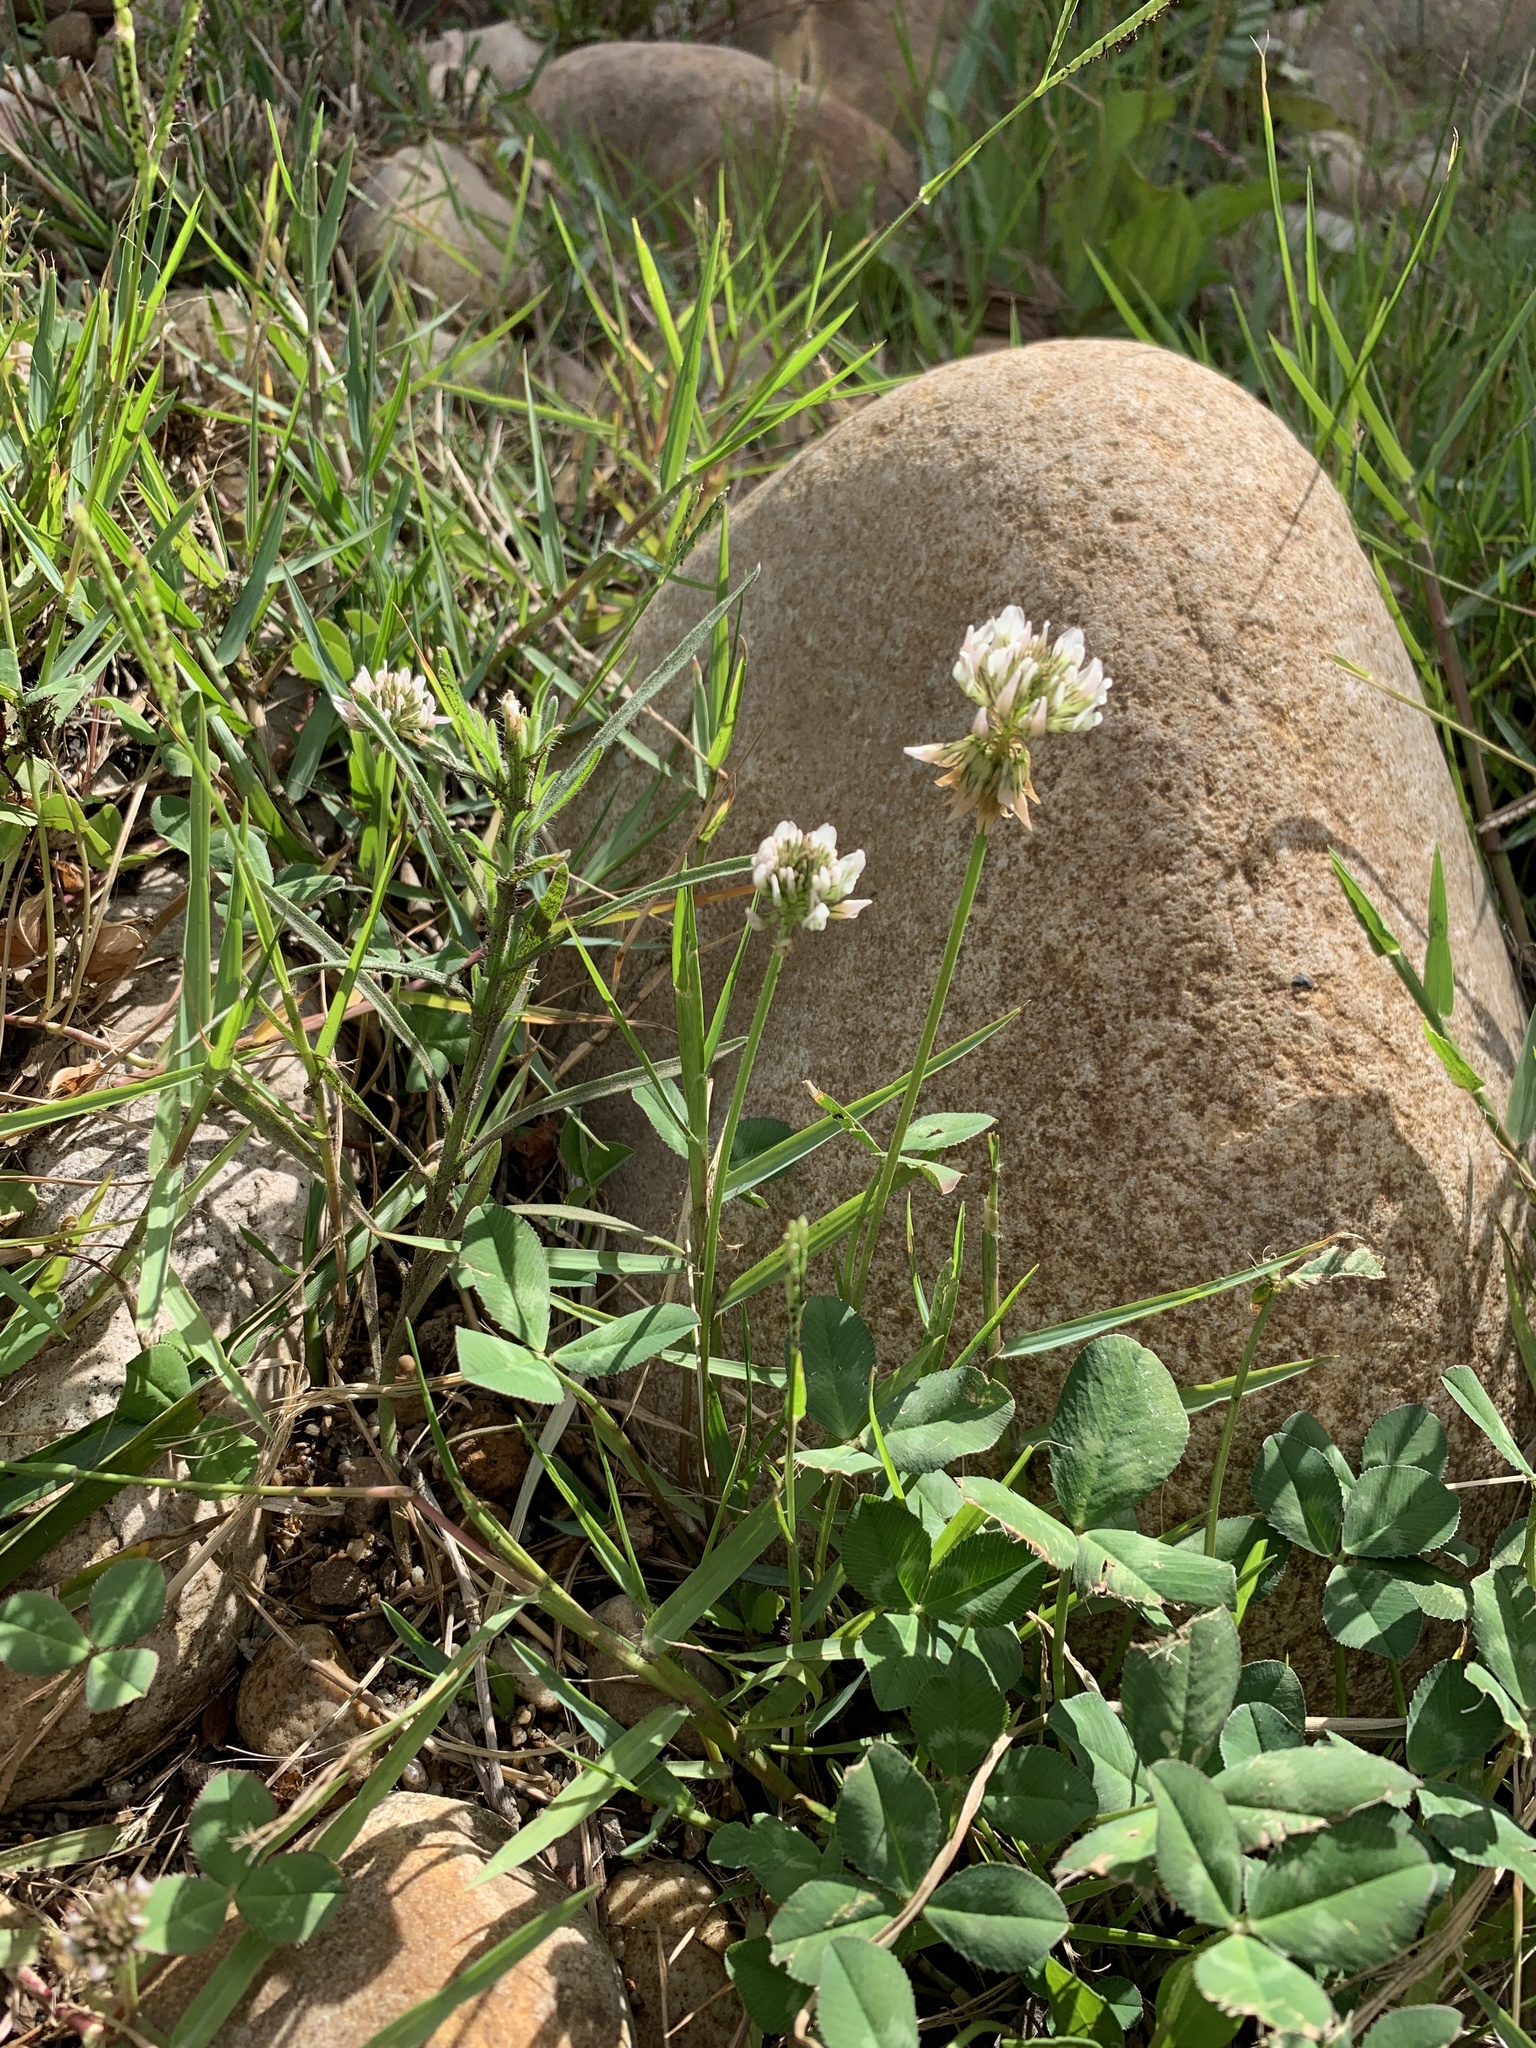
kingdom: Plantae
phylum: Tracheophyta
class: Magnoliopsida
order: Fabales
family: Fabaceae
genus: Trifolium
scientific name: Trifolium repens
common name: White clover
